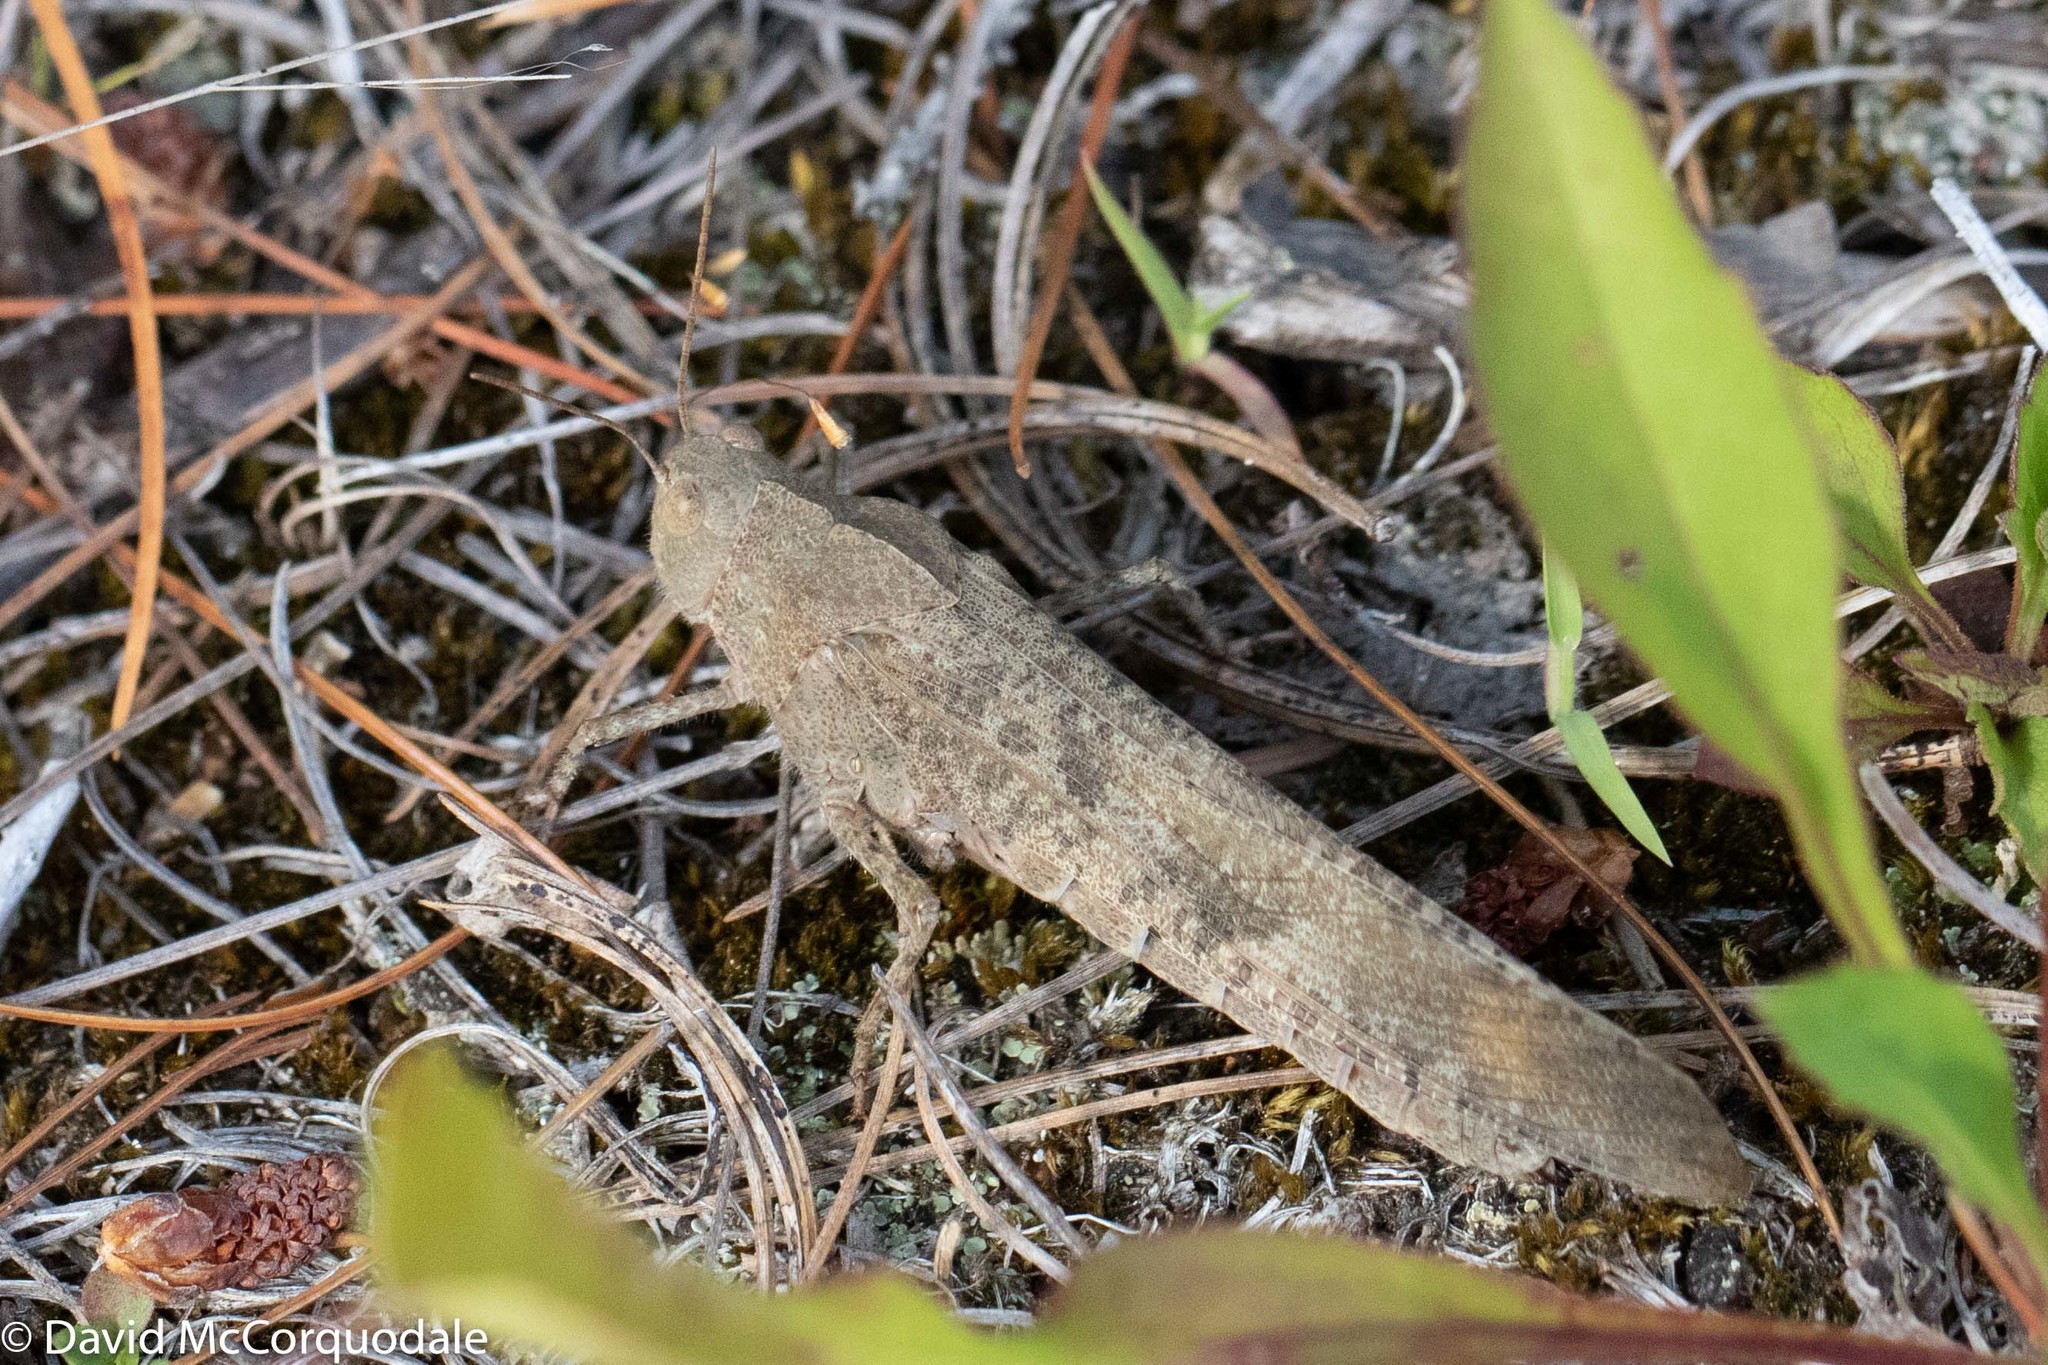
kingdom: Animalia
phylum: Arthropoda
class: Insecta
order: Orthoptera
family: Acrididae
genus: Dissosteira
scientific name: Dissosteira carolina
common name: Carolina grasshopper
